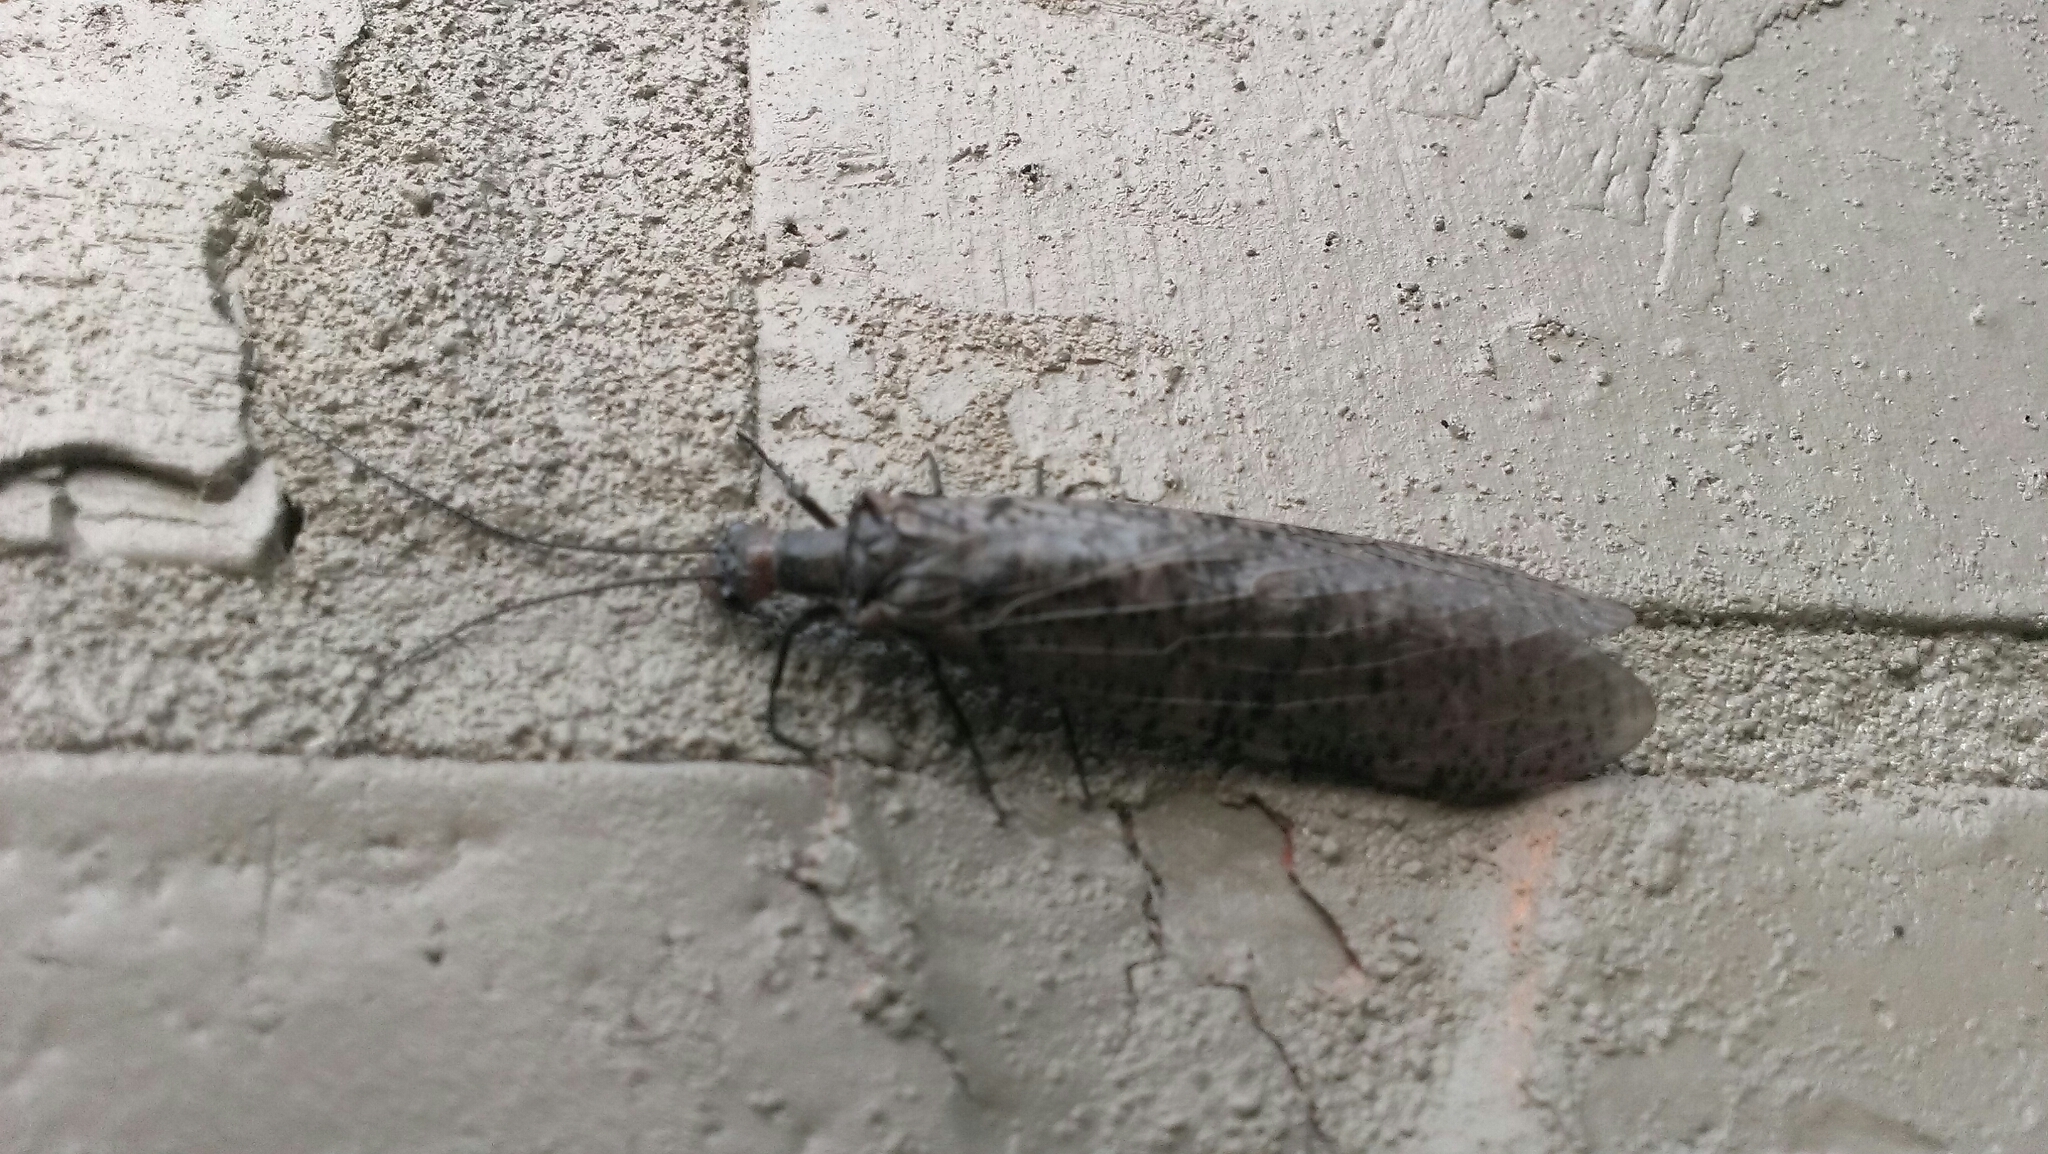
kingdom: Animalia
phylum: Arthropoda
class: Insecta
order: Megaloptera
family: Corydalidae
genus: Neohermes
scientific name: Neohermes concolor
